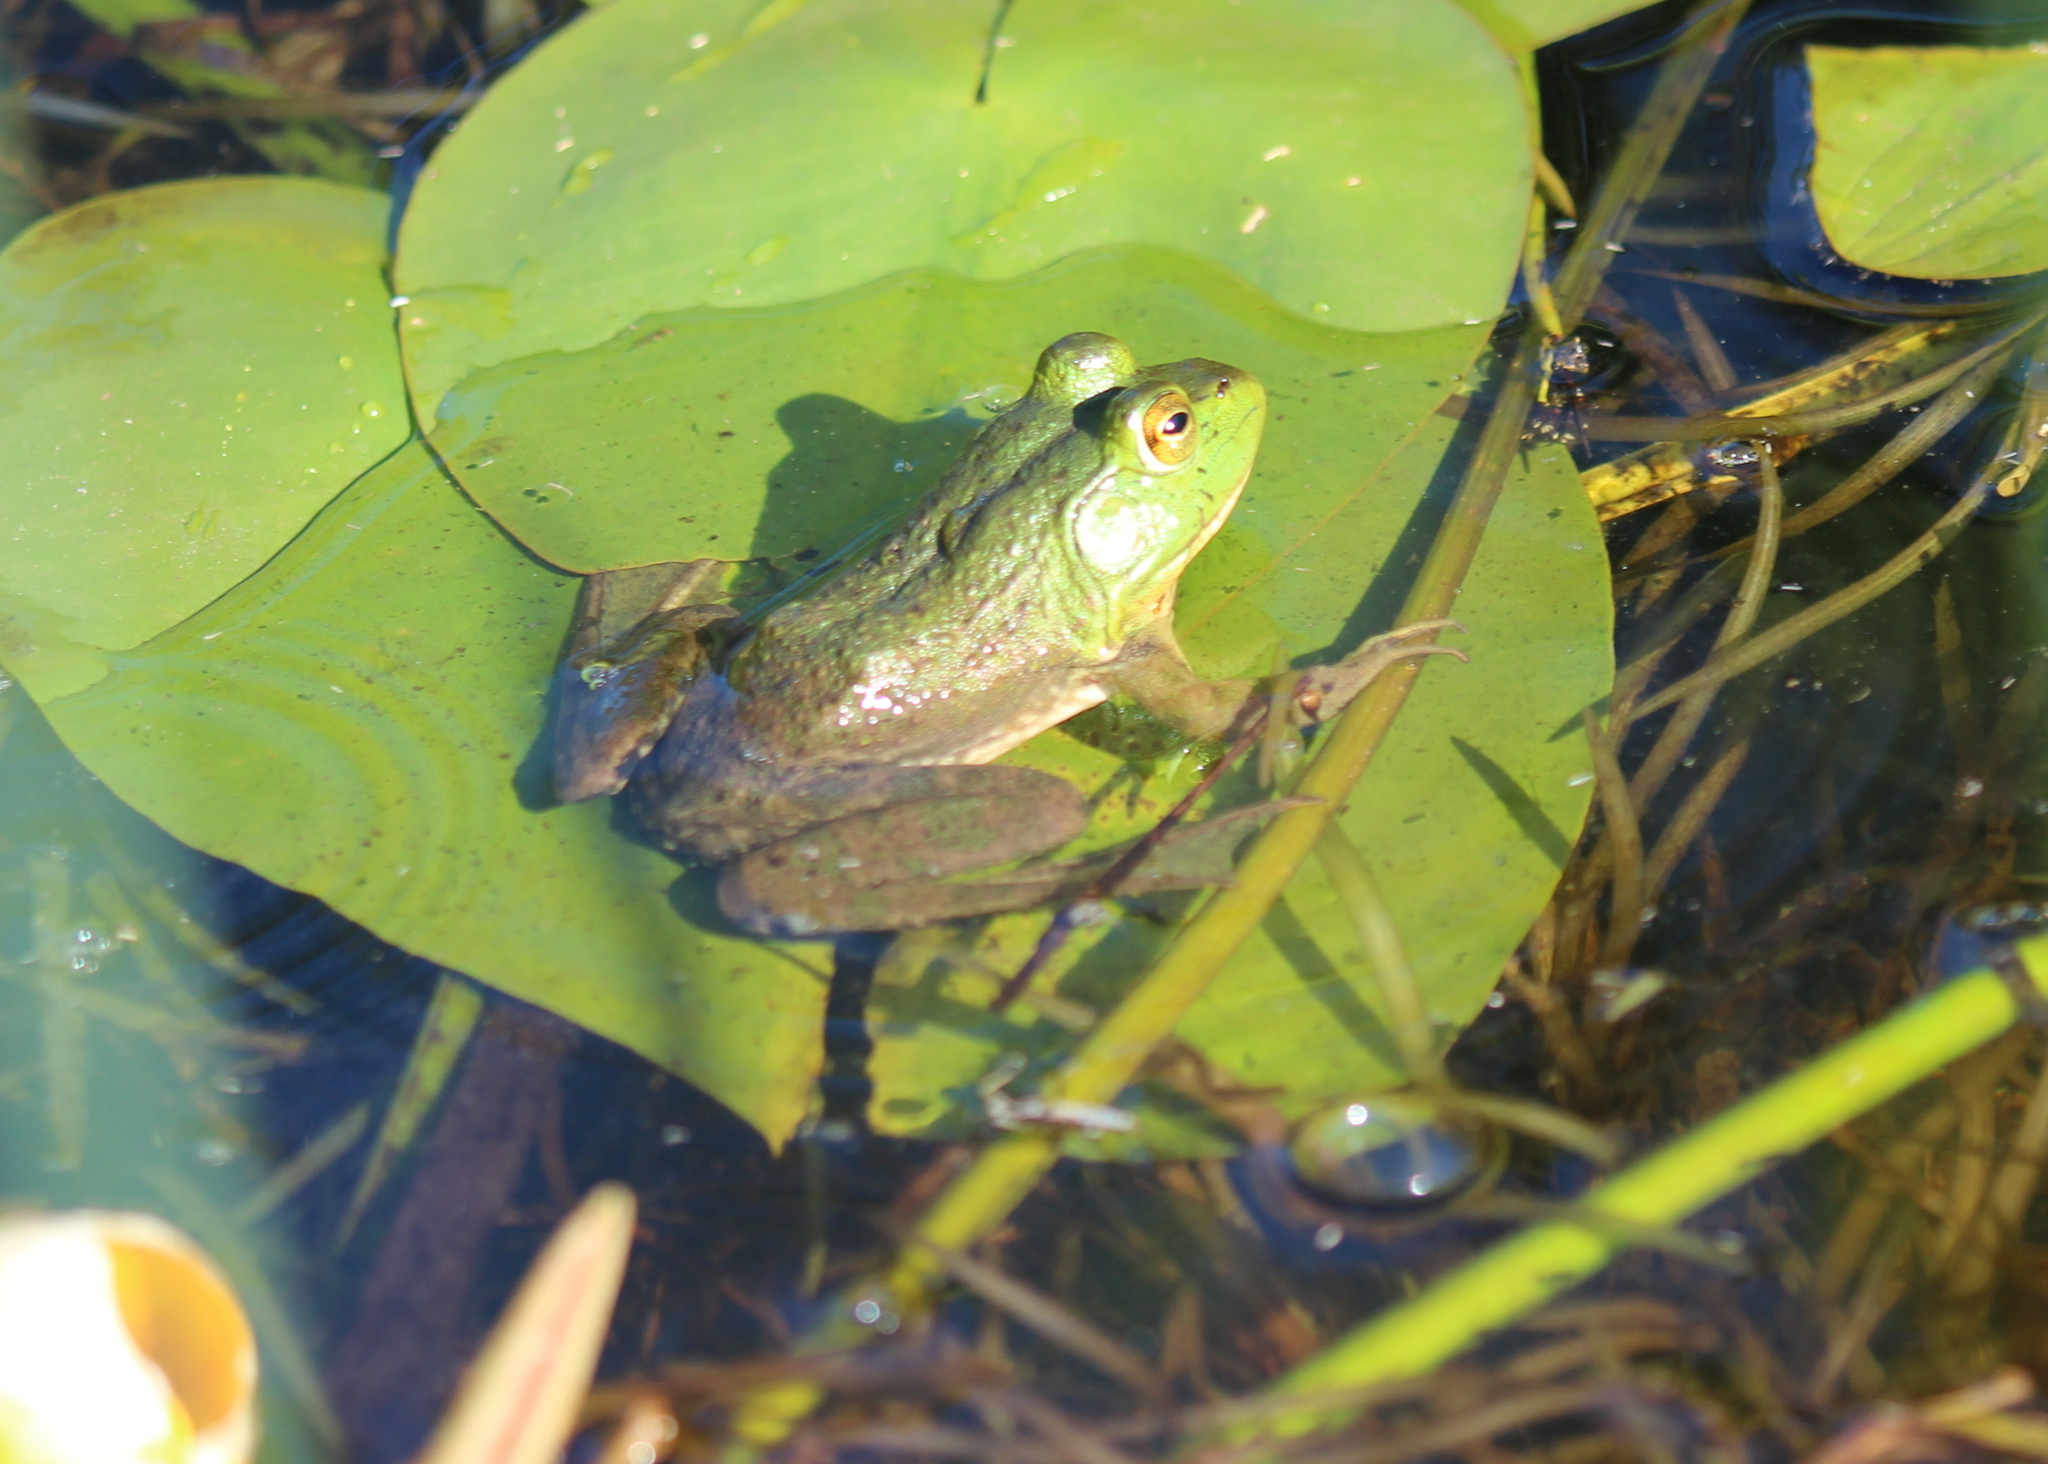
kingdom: Animalia
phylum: Chordata
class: Amphibia
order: Anura
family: Ranidae
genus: Lithobates
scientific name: Lithobates catesbeianus
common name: American bullfrog
